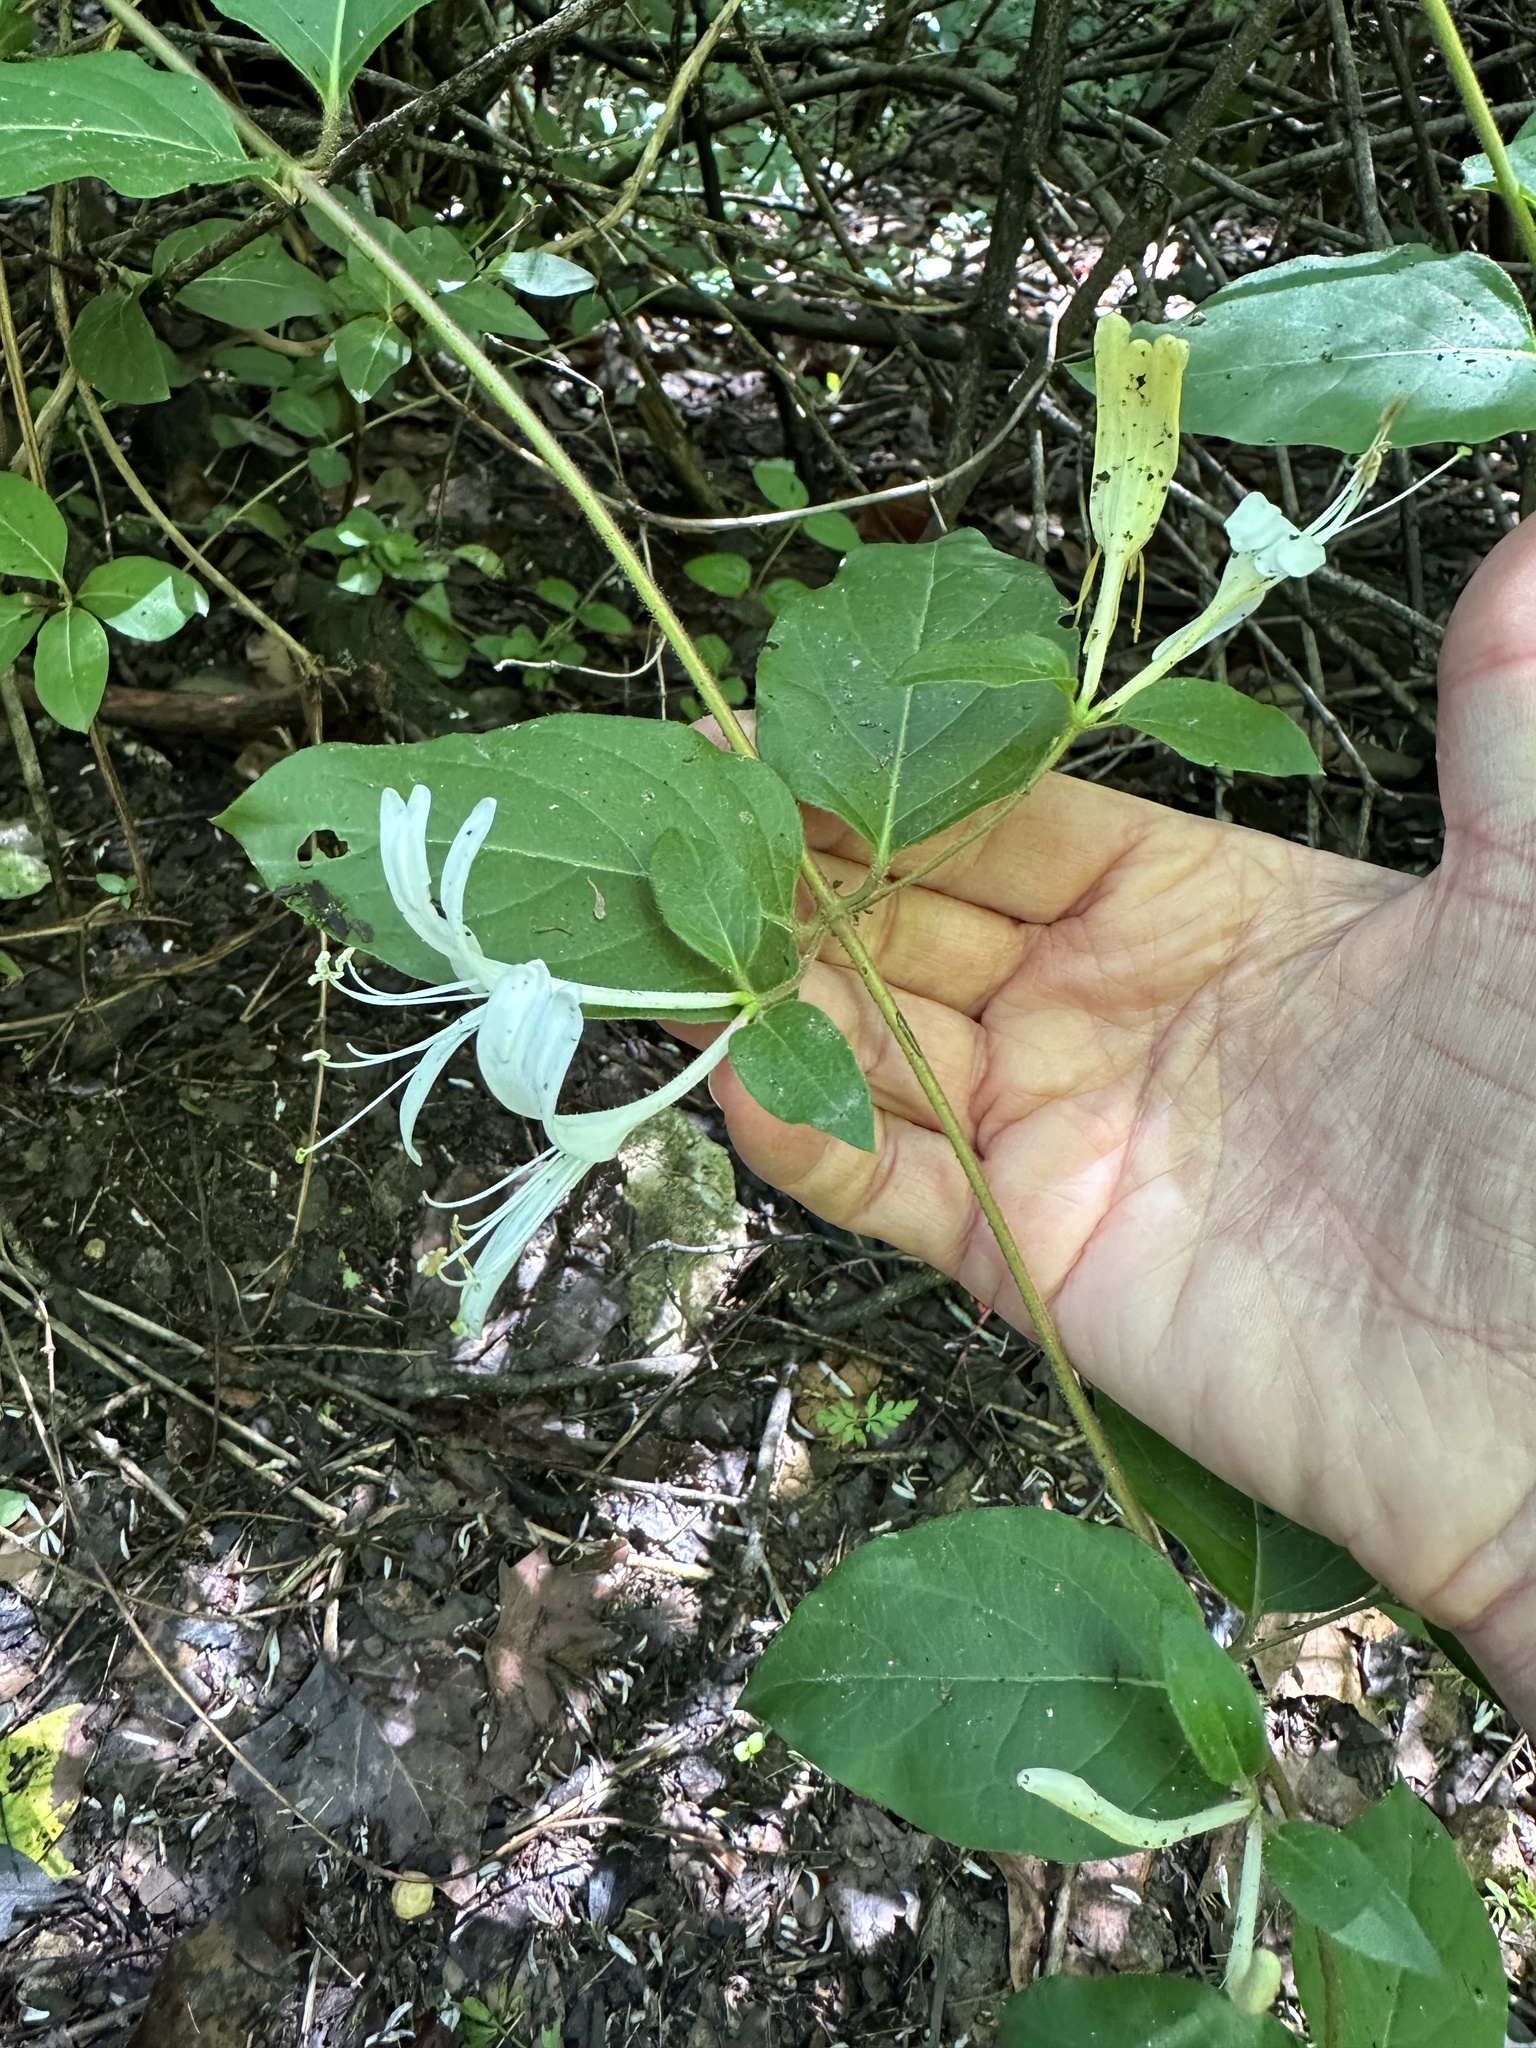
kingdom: Plantae
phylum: Tracheophyta
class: Magnoliopsida
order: Dipsacales
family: Caprifoliaceae
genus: Lonicera
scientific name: Lonicera japonica
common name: Japanese honeysuckle
